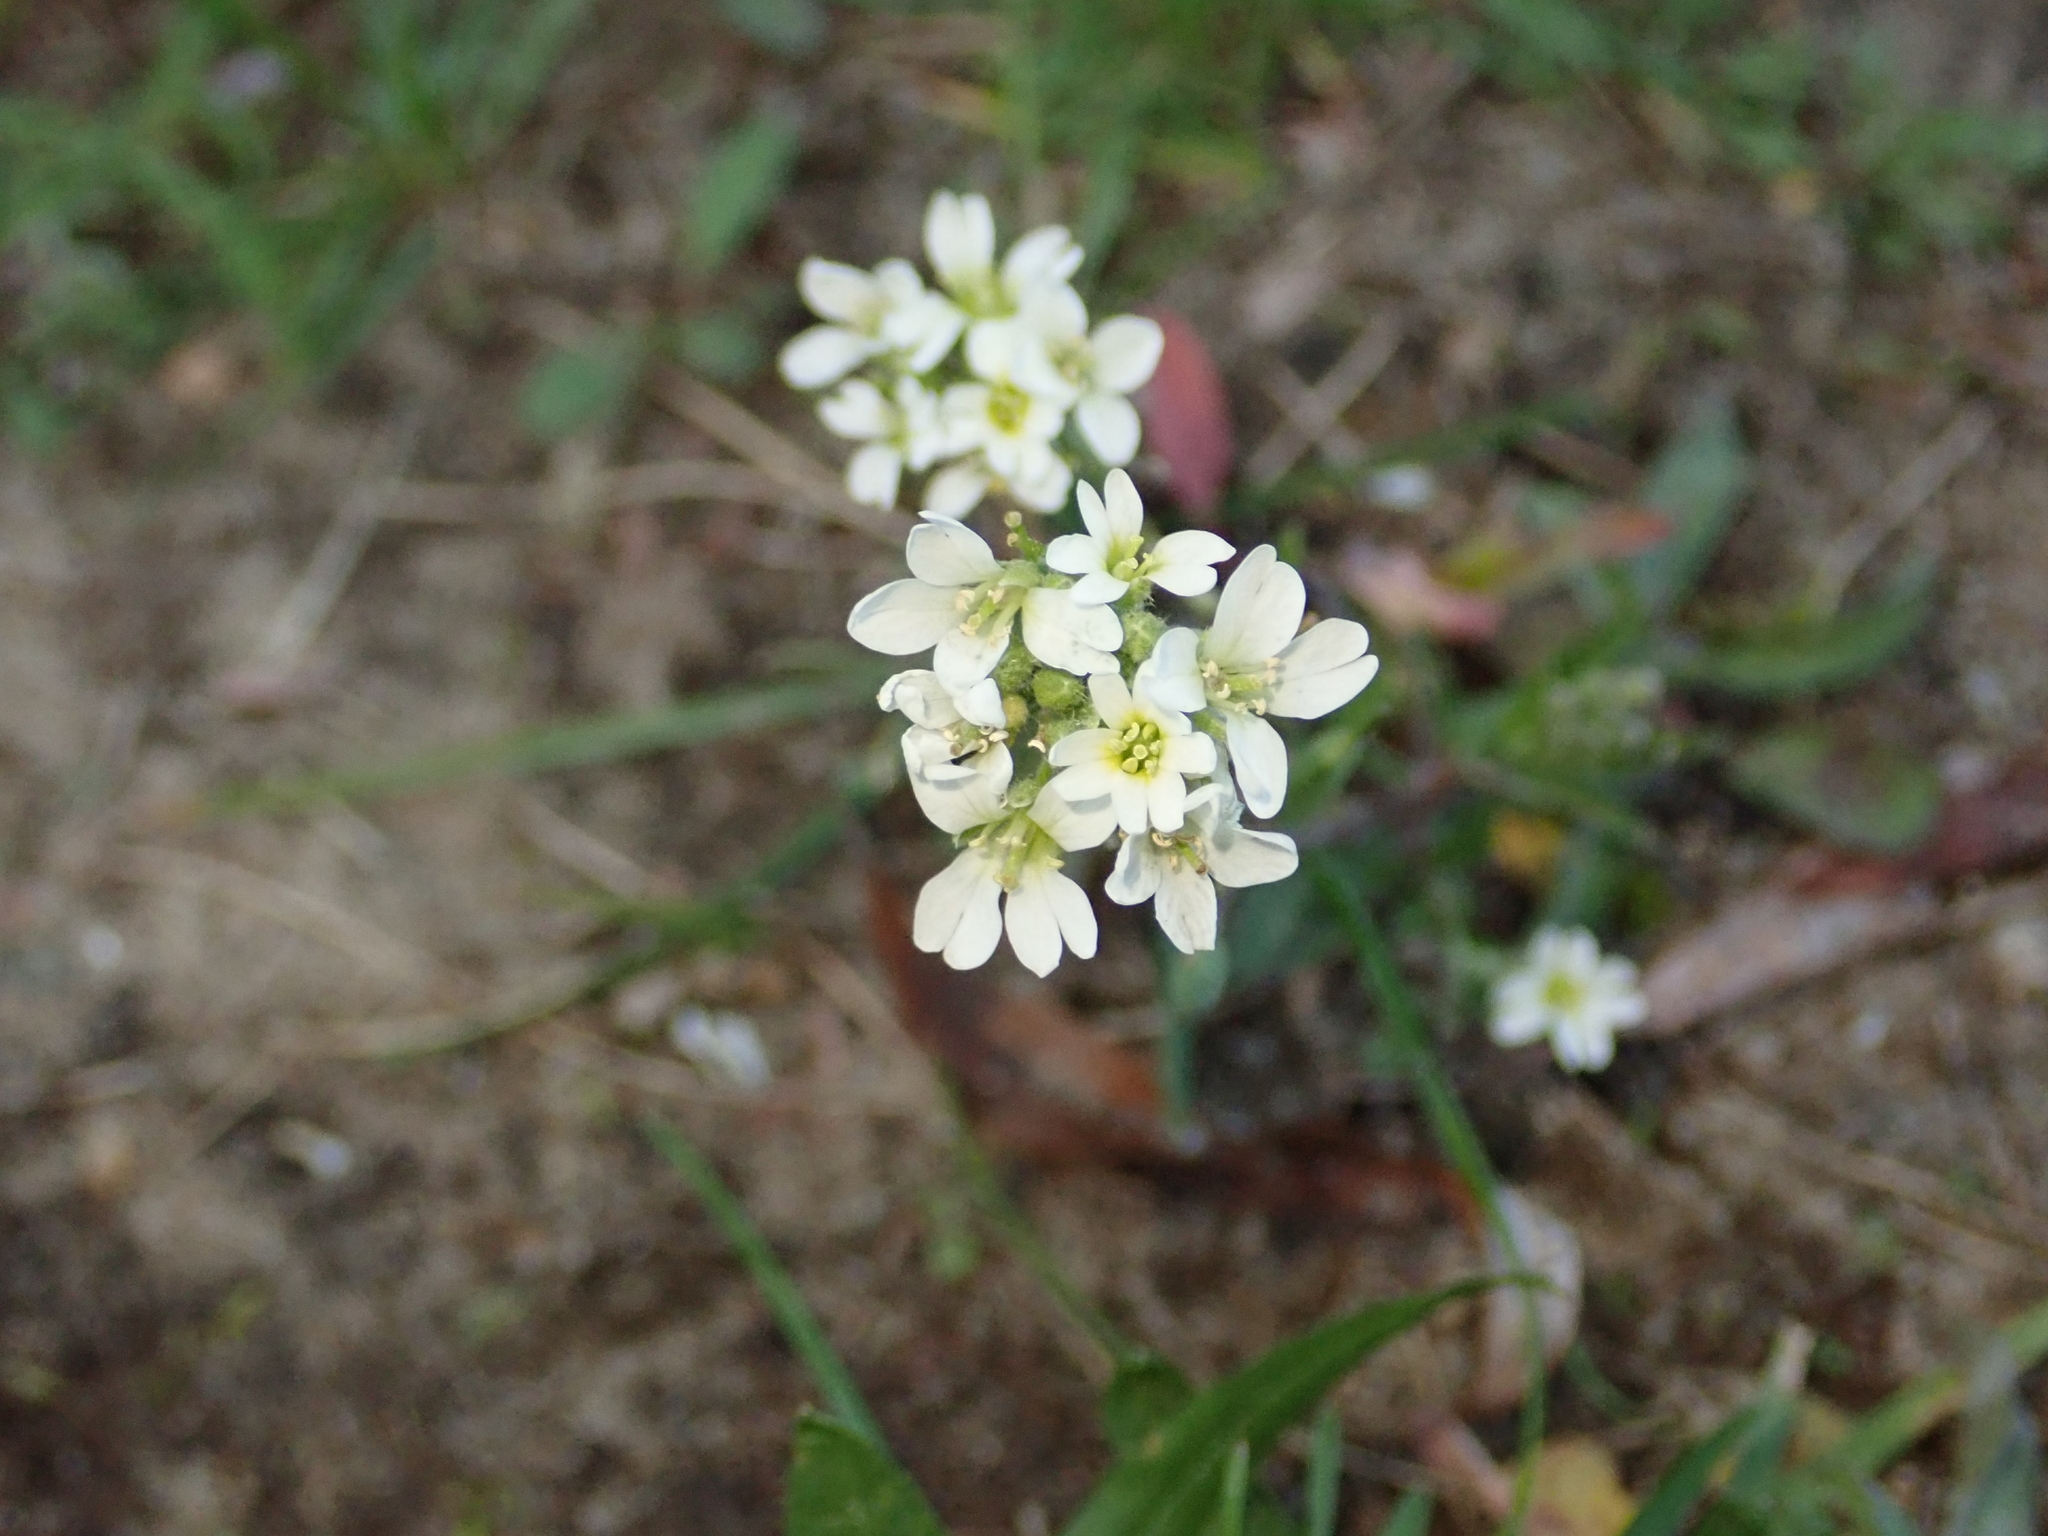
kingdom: Plantae
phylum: Tracheophyta
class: Magnoliopsida
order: Brassicales
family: Brassicaceae
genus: Berteroa
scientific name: Berteroa incana
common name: Hoary alison
